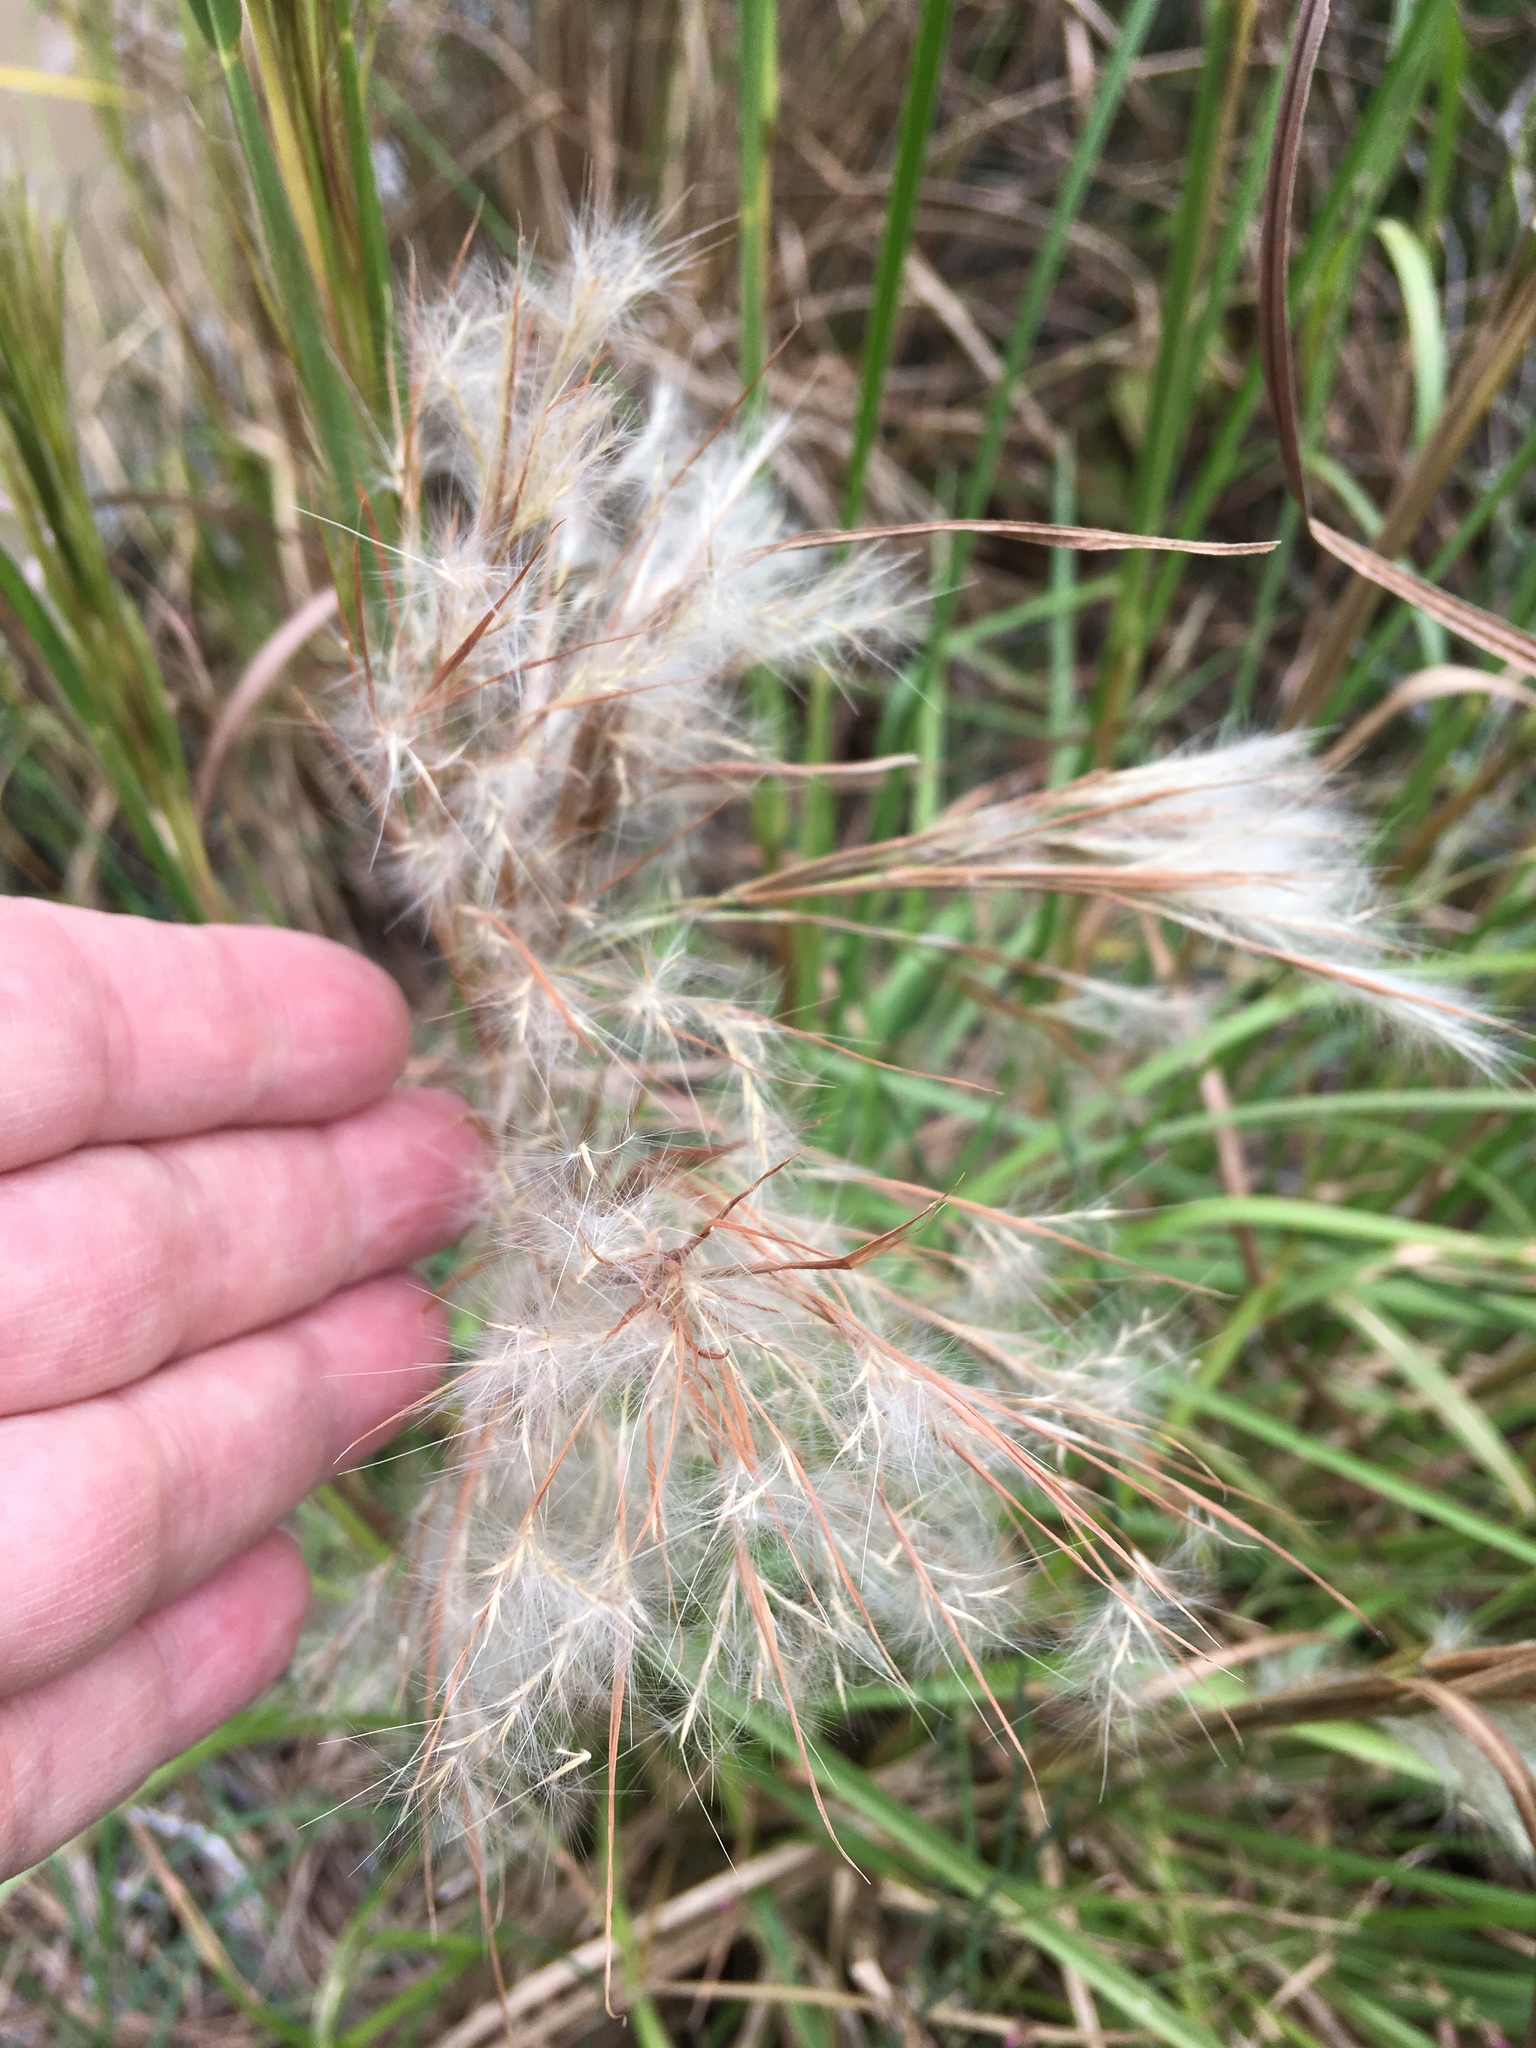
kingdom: Plantae
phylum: Tracheophyta
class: Liliopsida
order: Poales
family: Poaceae
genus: Andropogon
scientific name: Andropogon tenuispatheus
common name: Bushy bluestem
